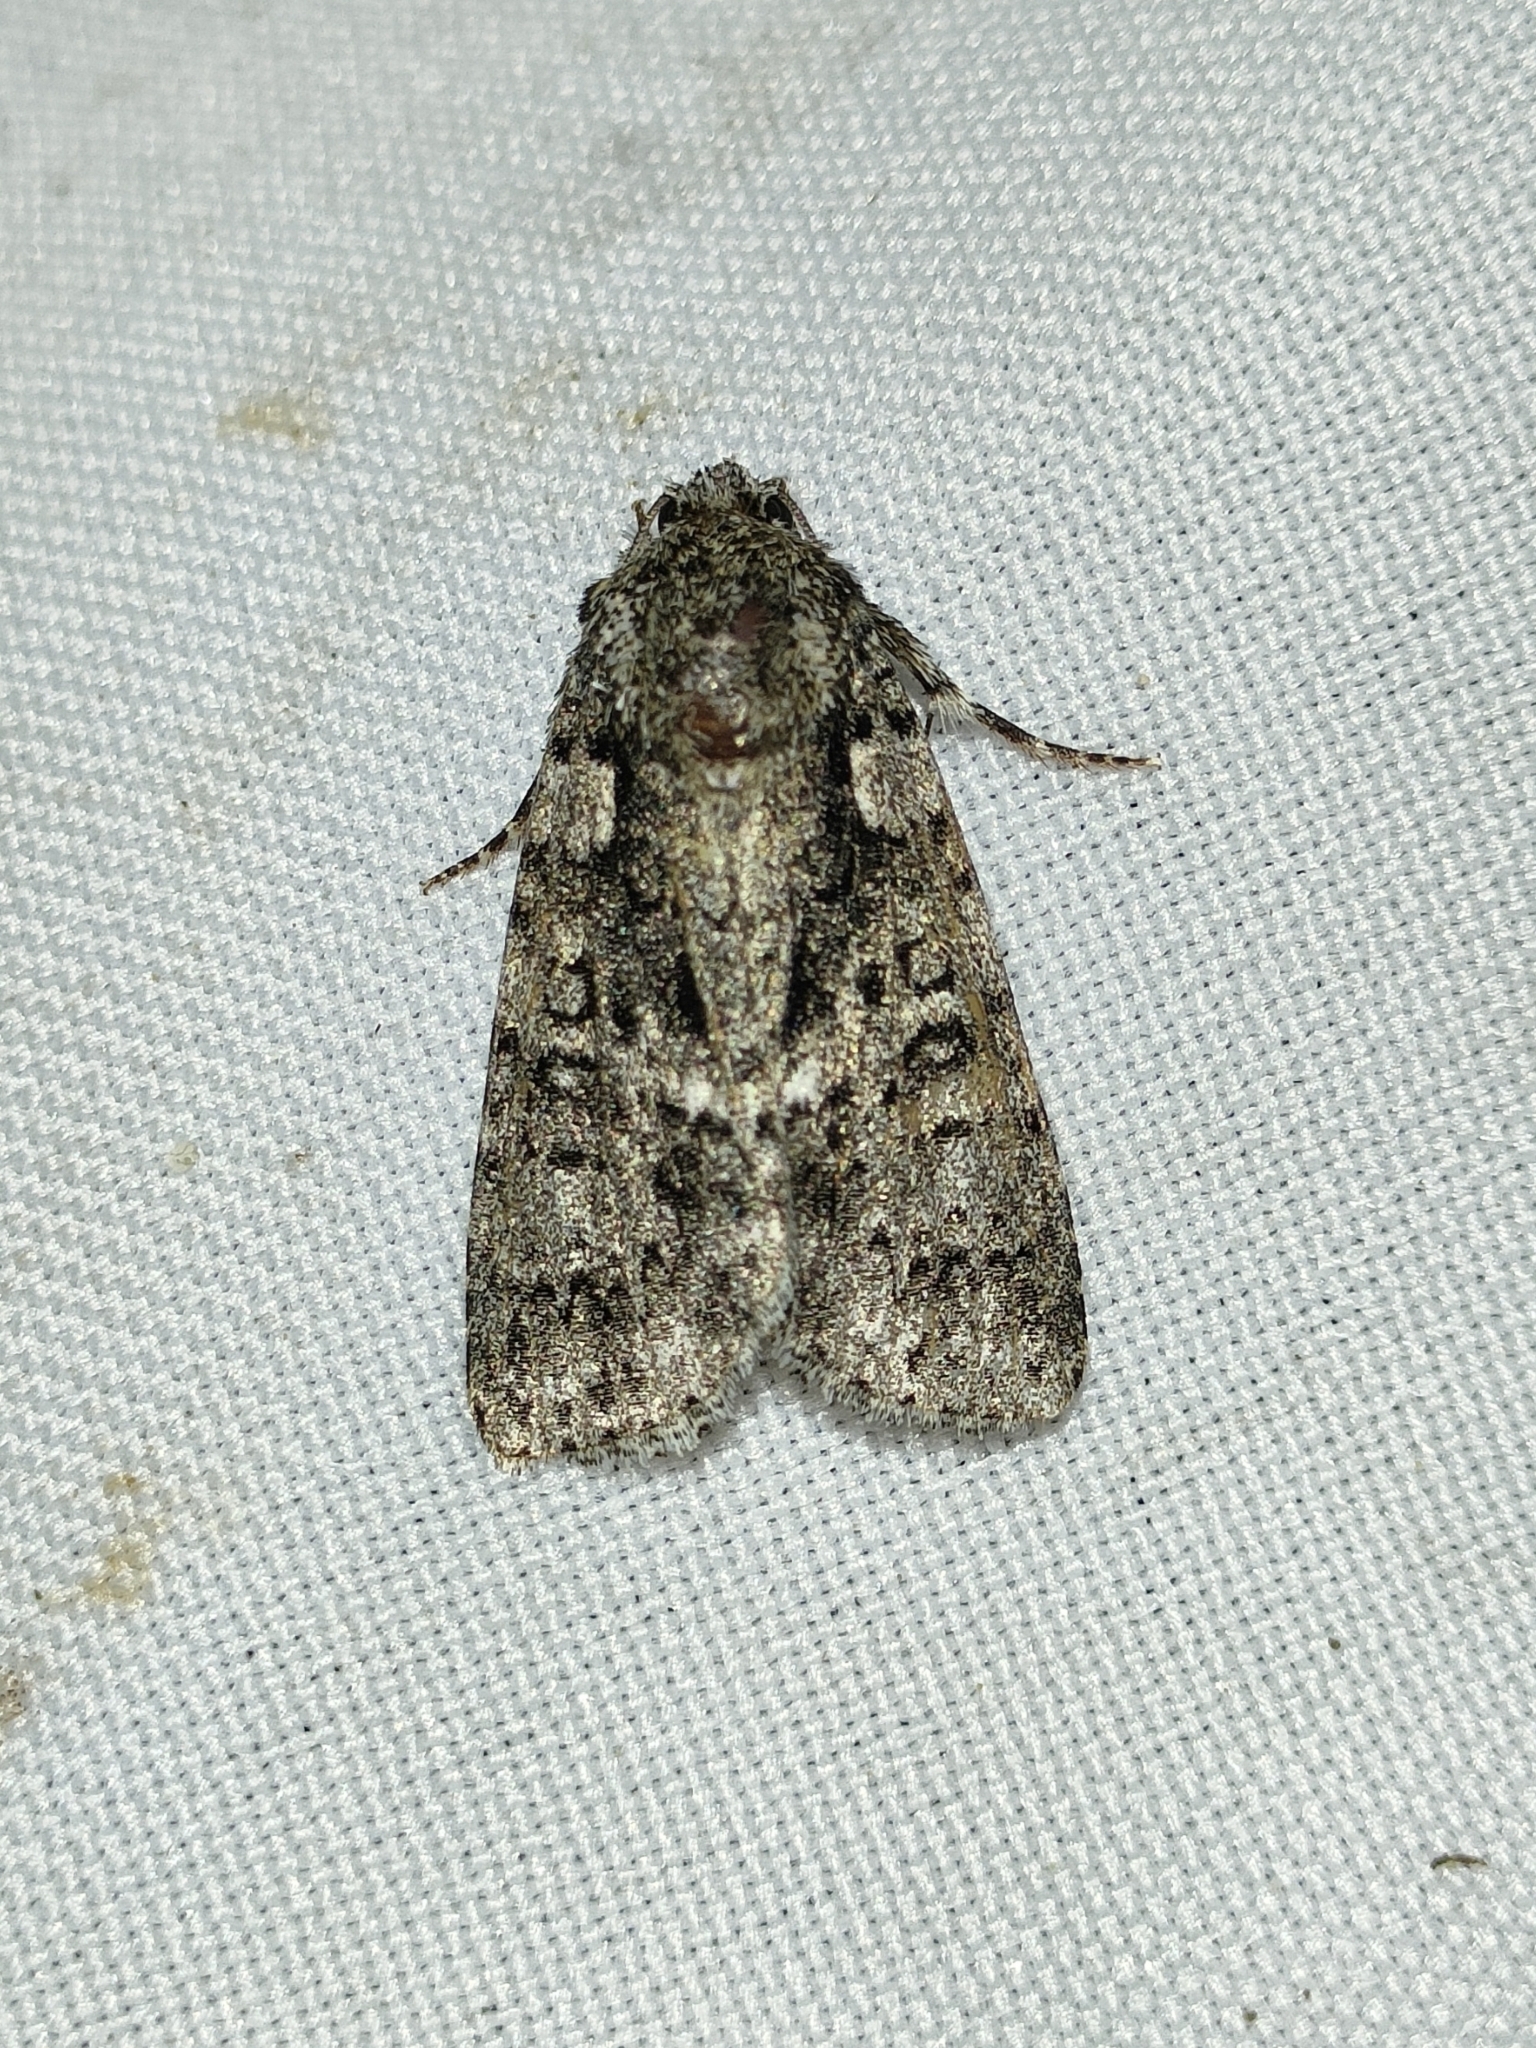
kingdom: Animalia
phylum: Arthropoda
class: Insecta
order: Lepidoptera
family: Noctuidae
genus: Acronicta
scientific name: Acronicta rumicis
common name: Knot grass
